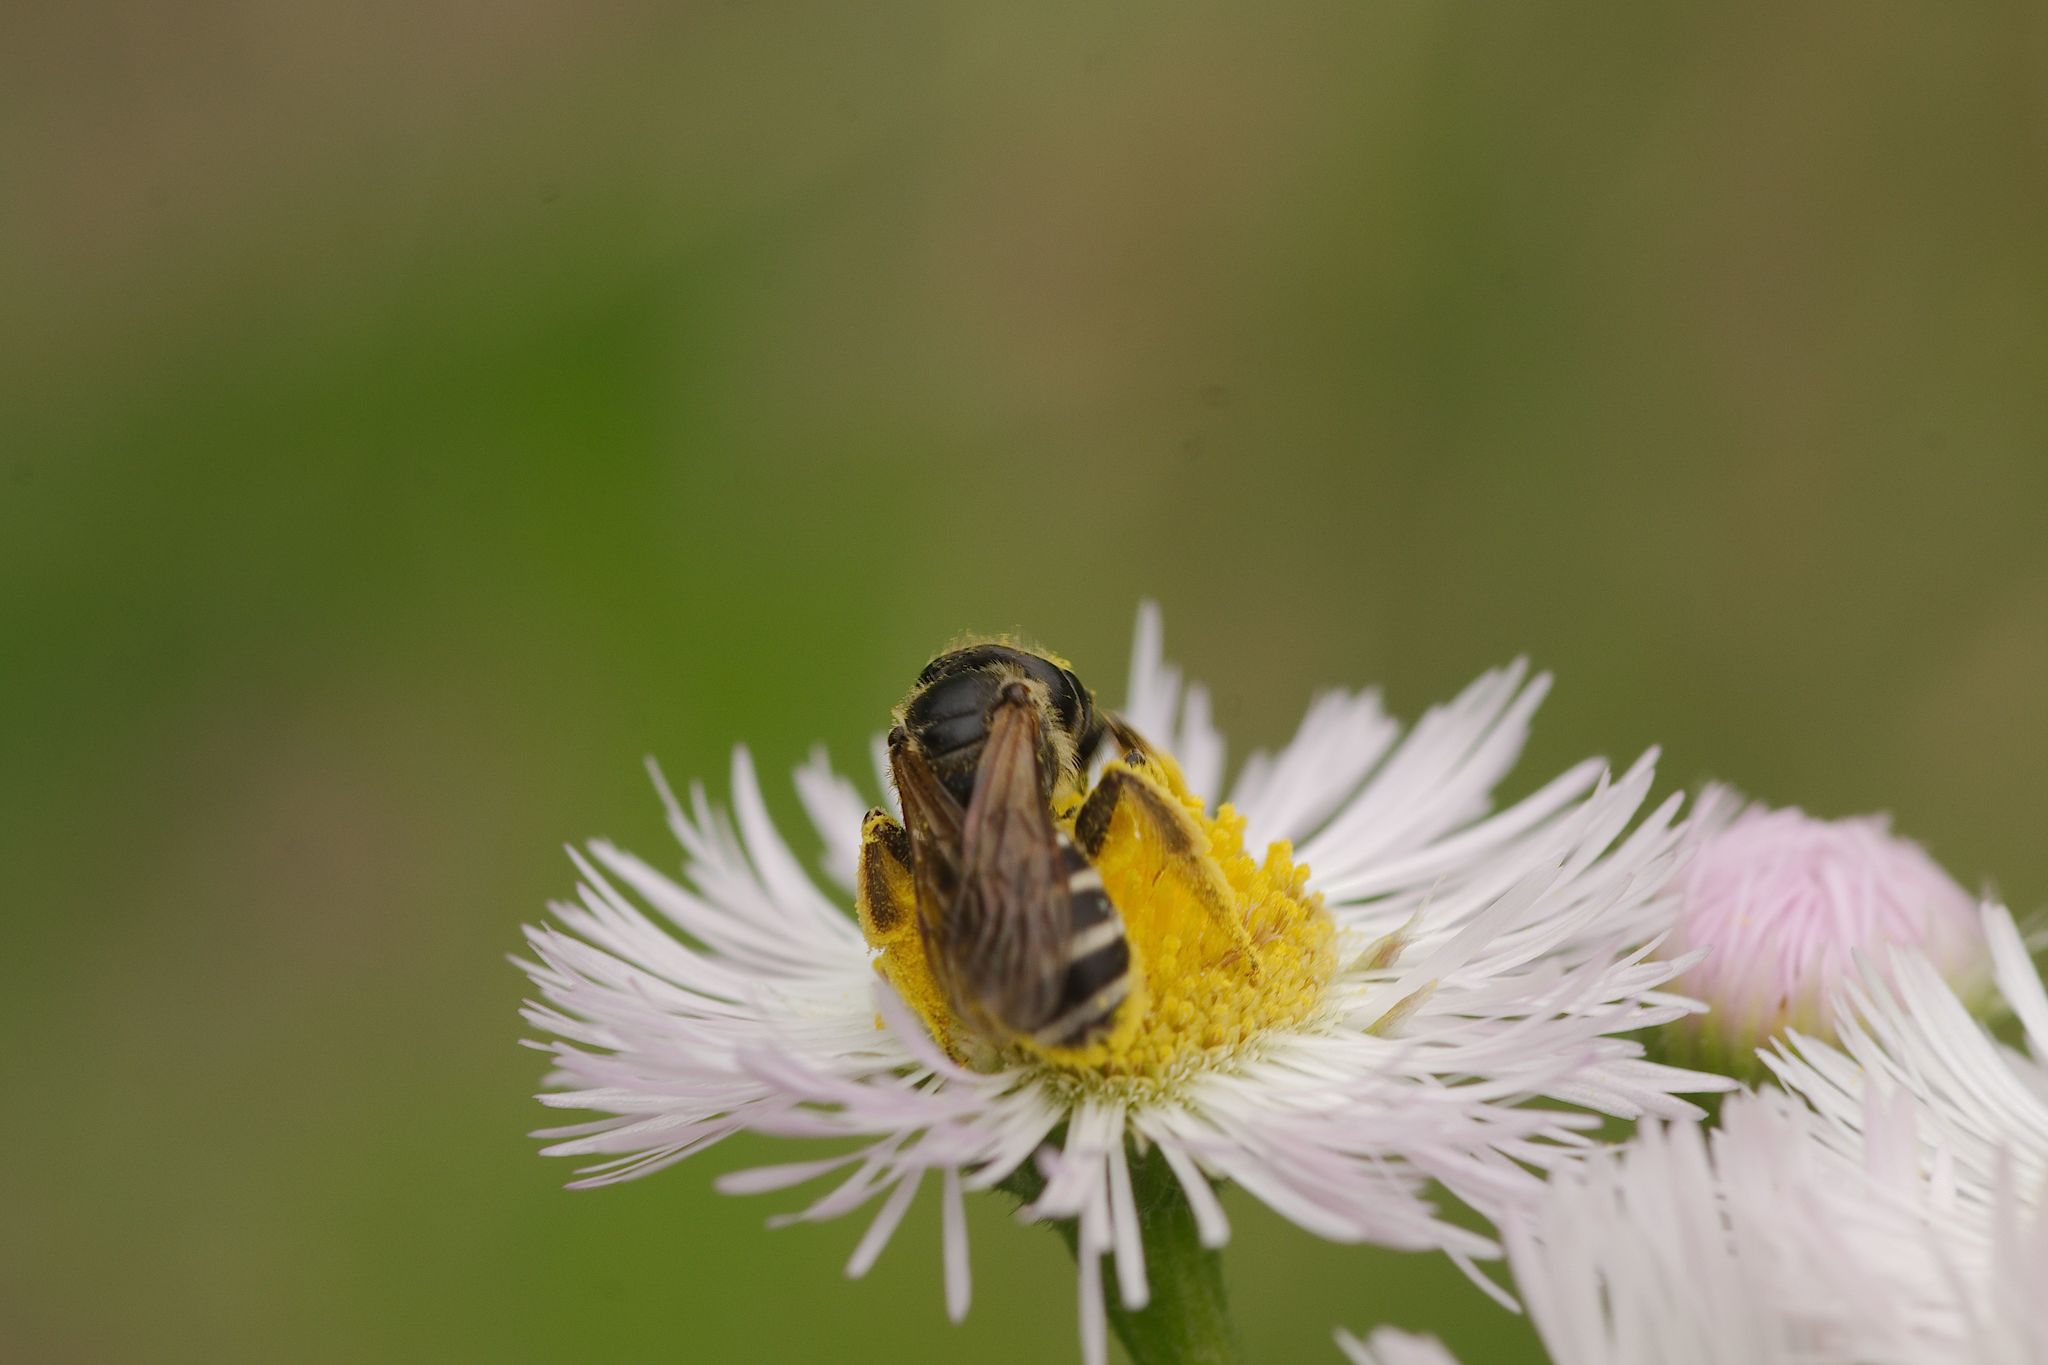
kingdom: Animalia
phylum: Arthropoda
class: Insecta
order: Hymenoptera
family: Halictidae
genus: Halictus
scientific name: Halictus ligatus
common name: Ligated furrow bee
